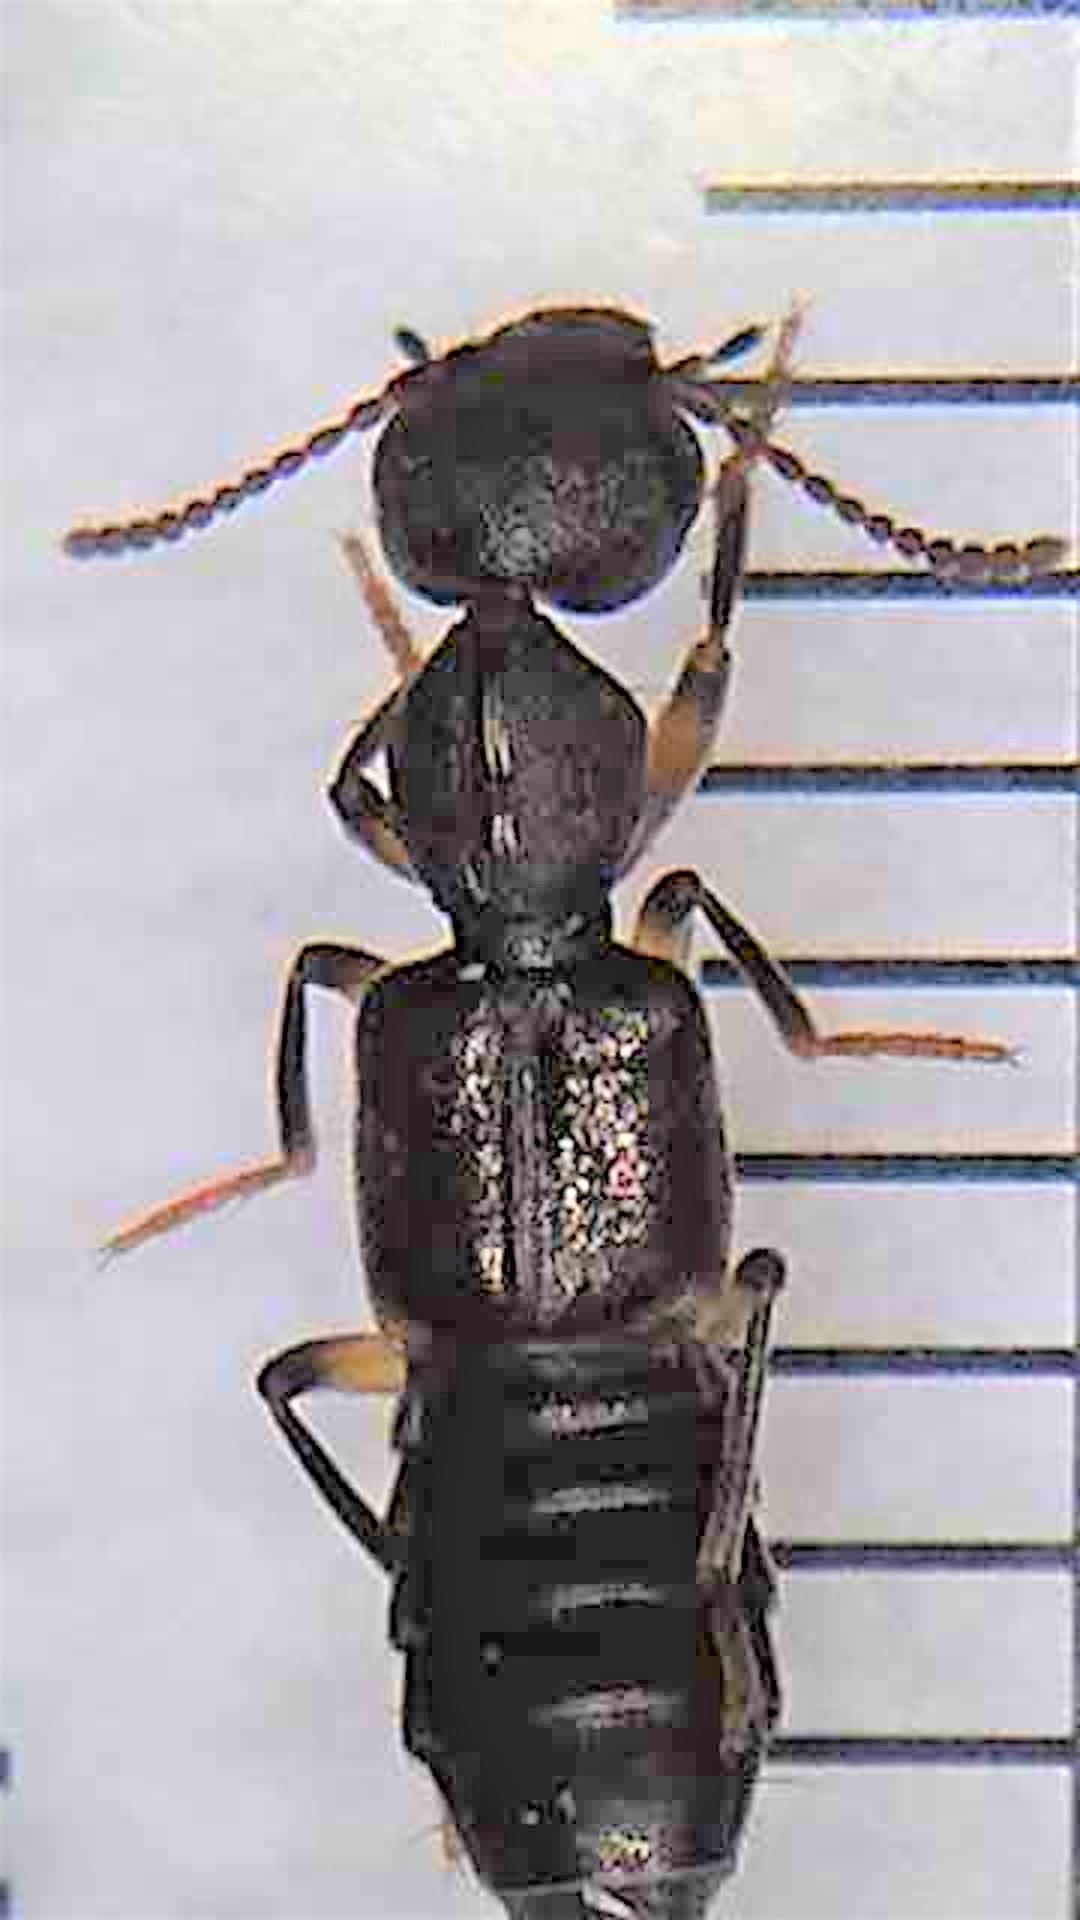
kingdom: Animalia
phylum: Arthropoda
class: Insecta
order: Coleoptera
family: Staphylinidae
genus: Rugilus
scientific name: Rugilus orbiculatus
